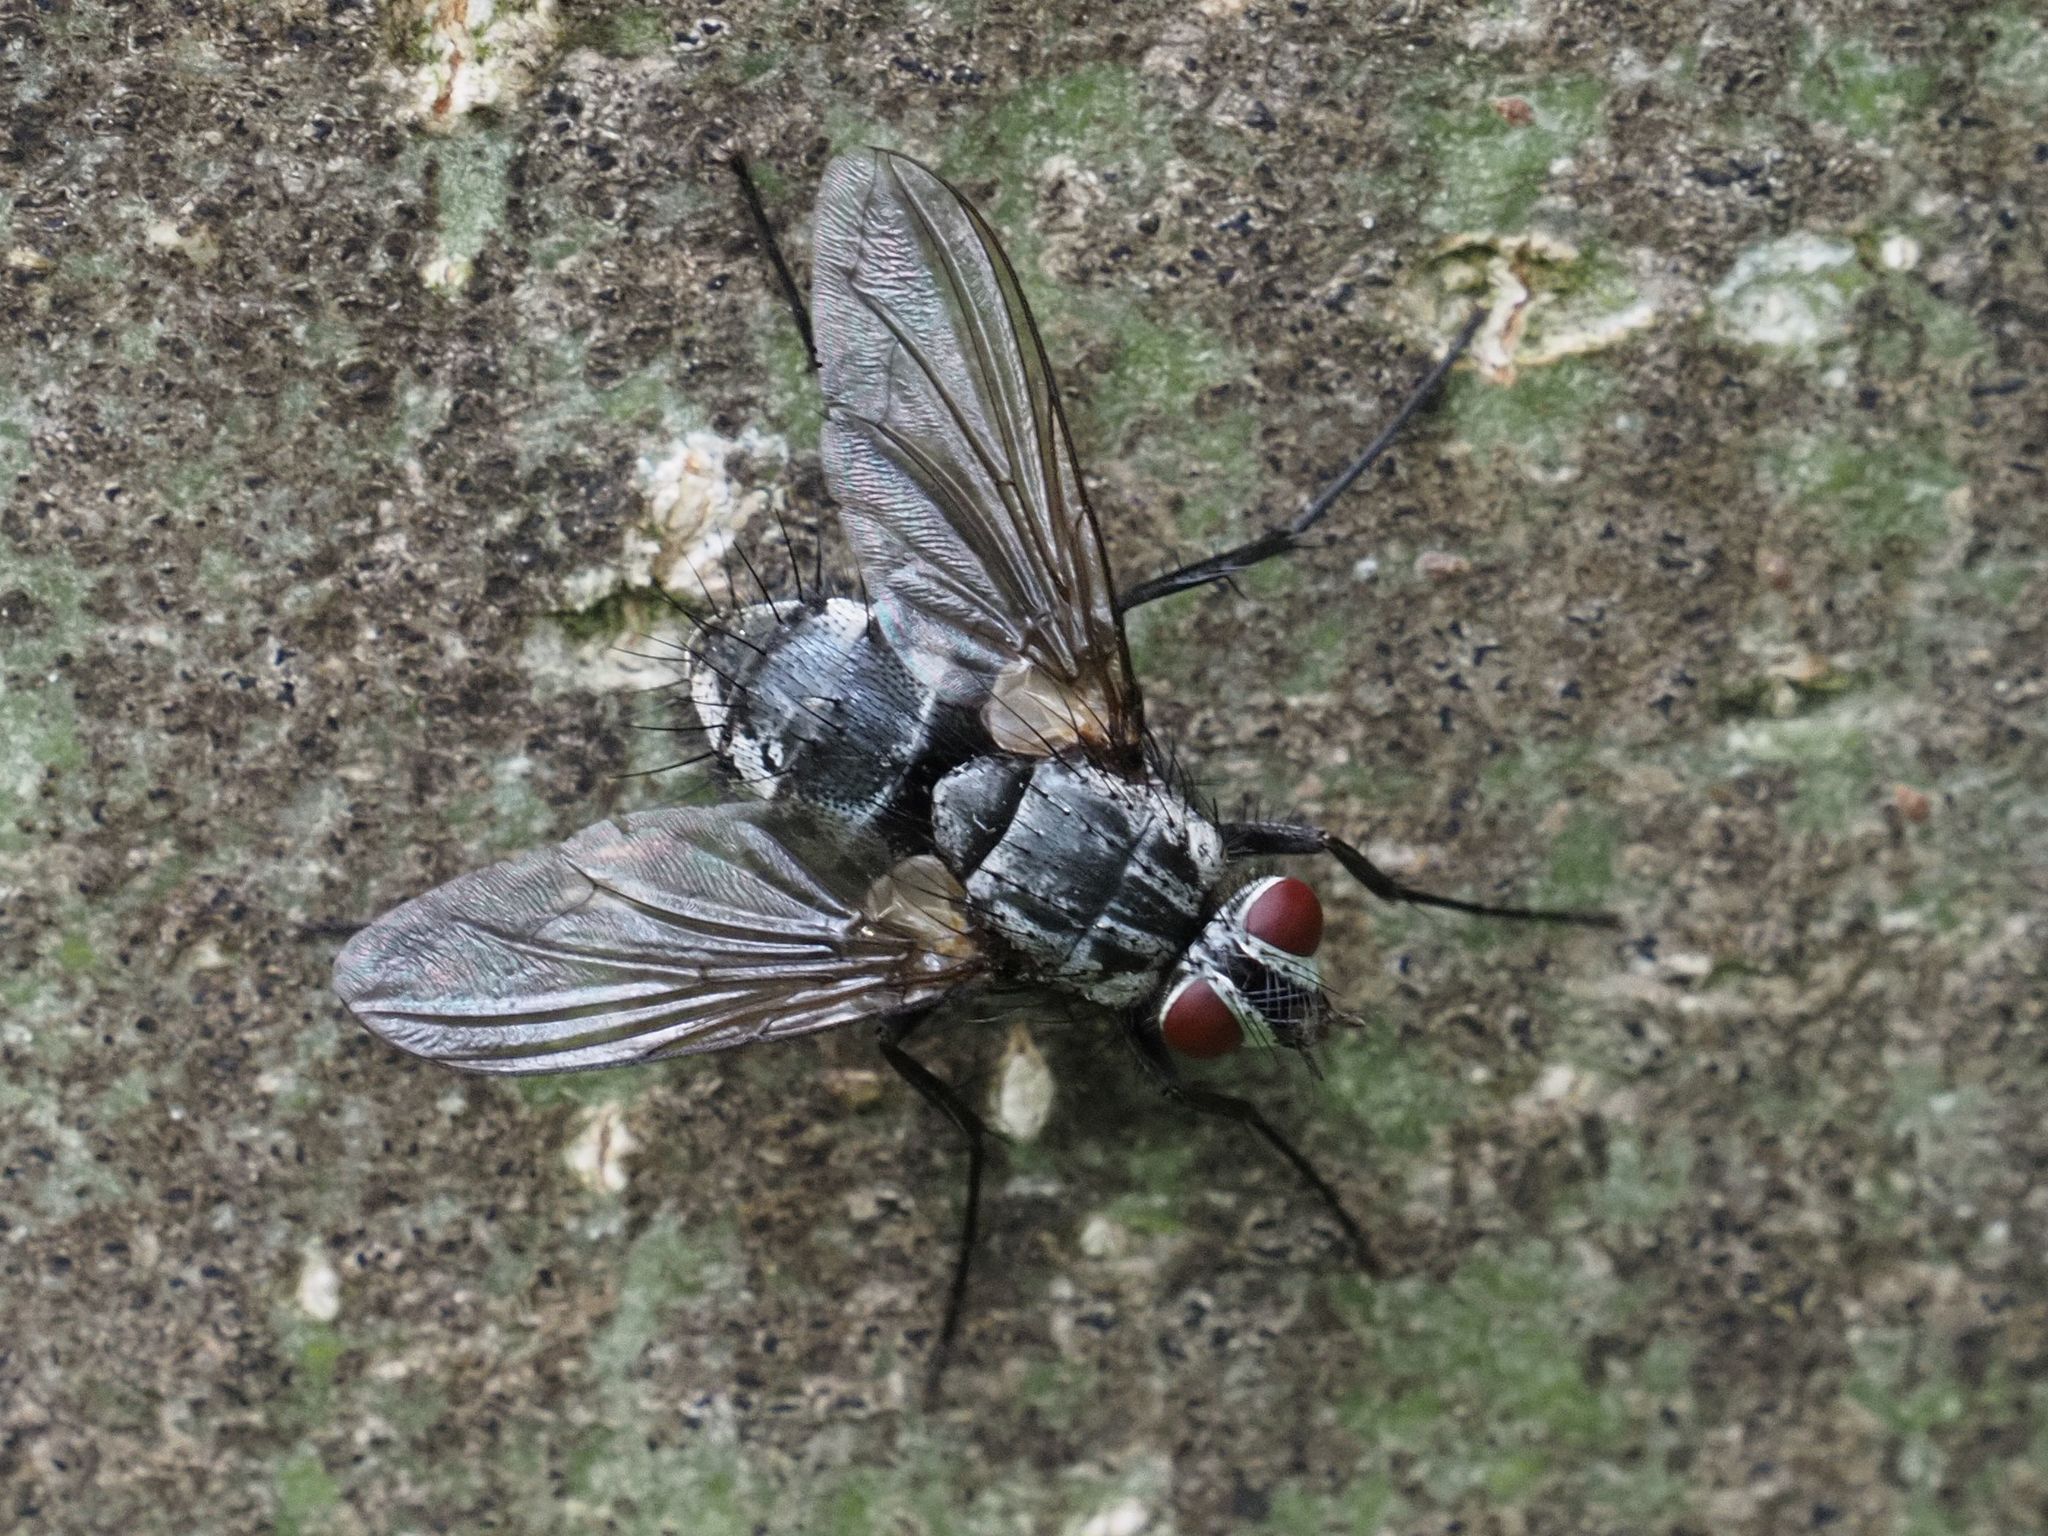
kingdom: Animalia
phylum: Arthropoda
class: Insecta
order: Diptera
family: Tachinidae
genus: Dinera
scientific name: Dinera ferina
